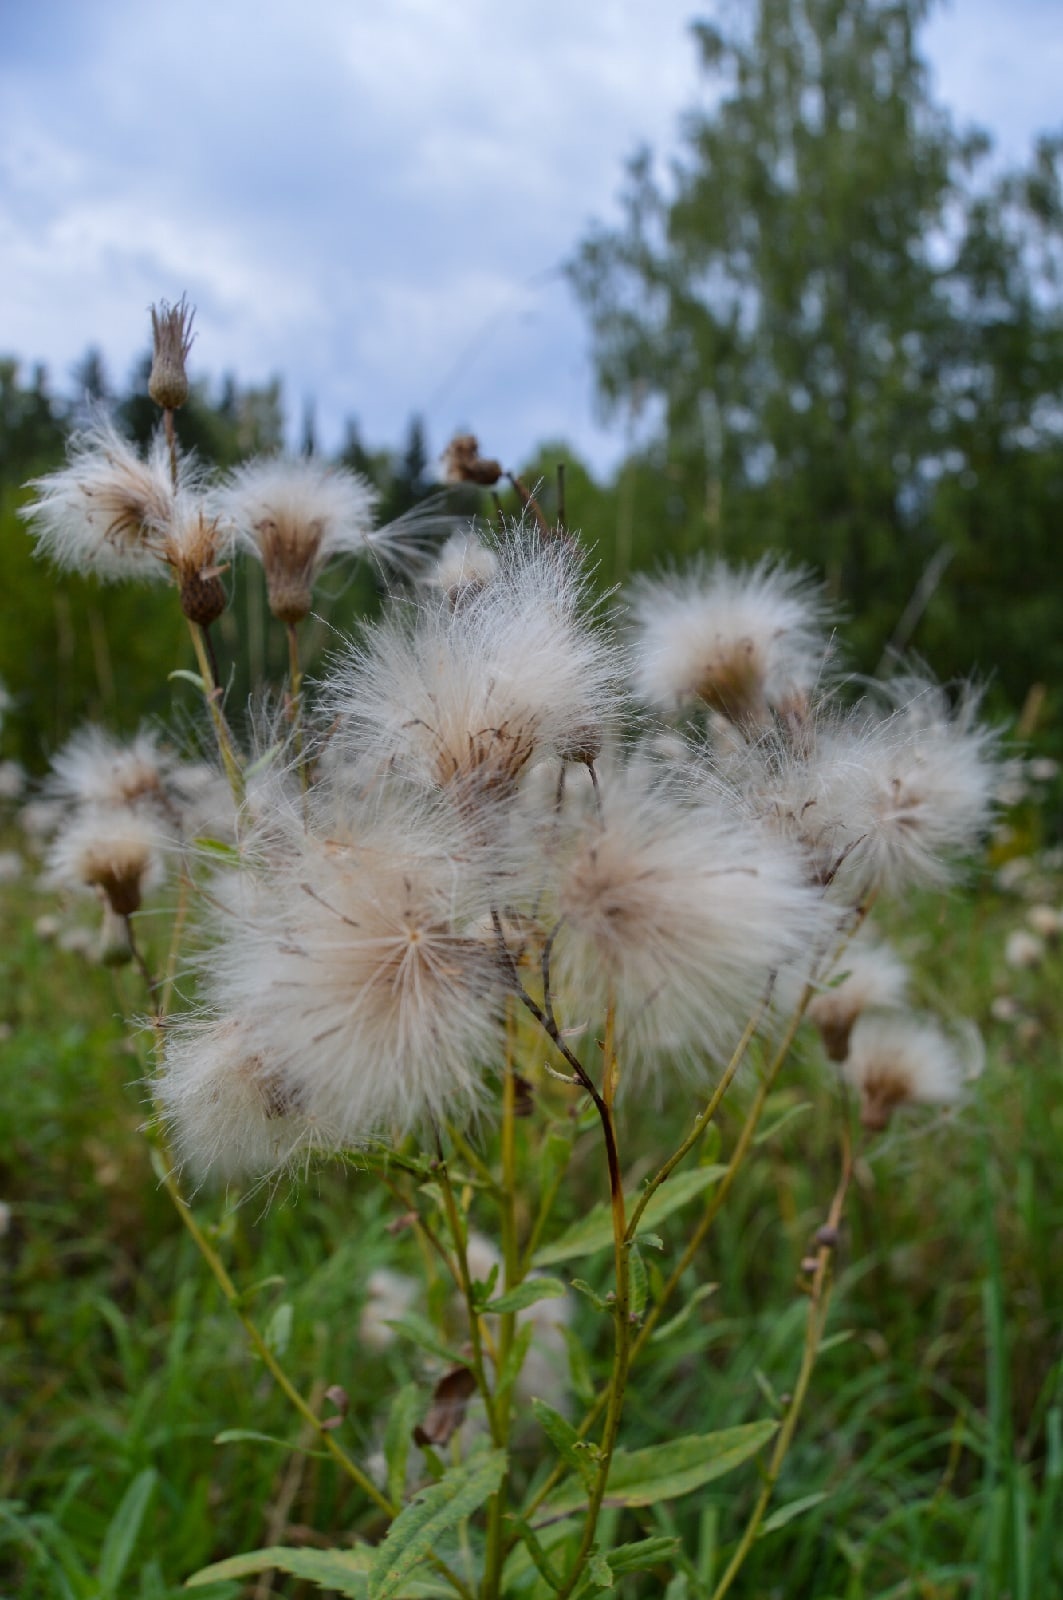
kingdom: Plantae
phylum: Tracheophyta
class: Magnoliopsida
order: Asterales
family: Asteraceae
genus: Cirsium
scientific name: Cirsium arvense
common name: Creeping thistle
